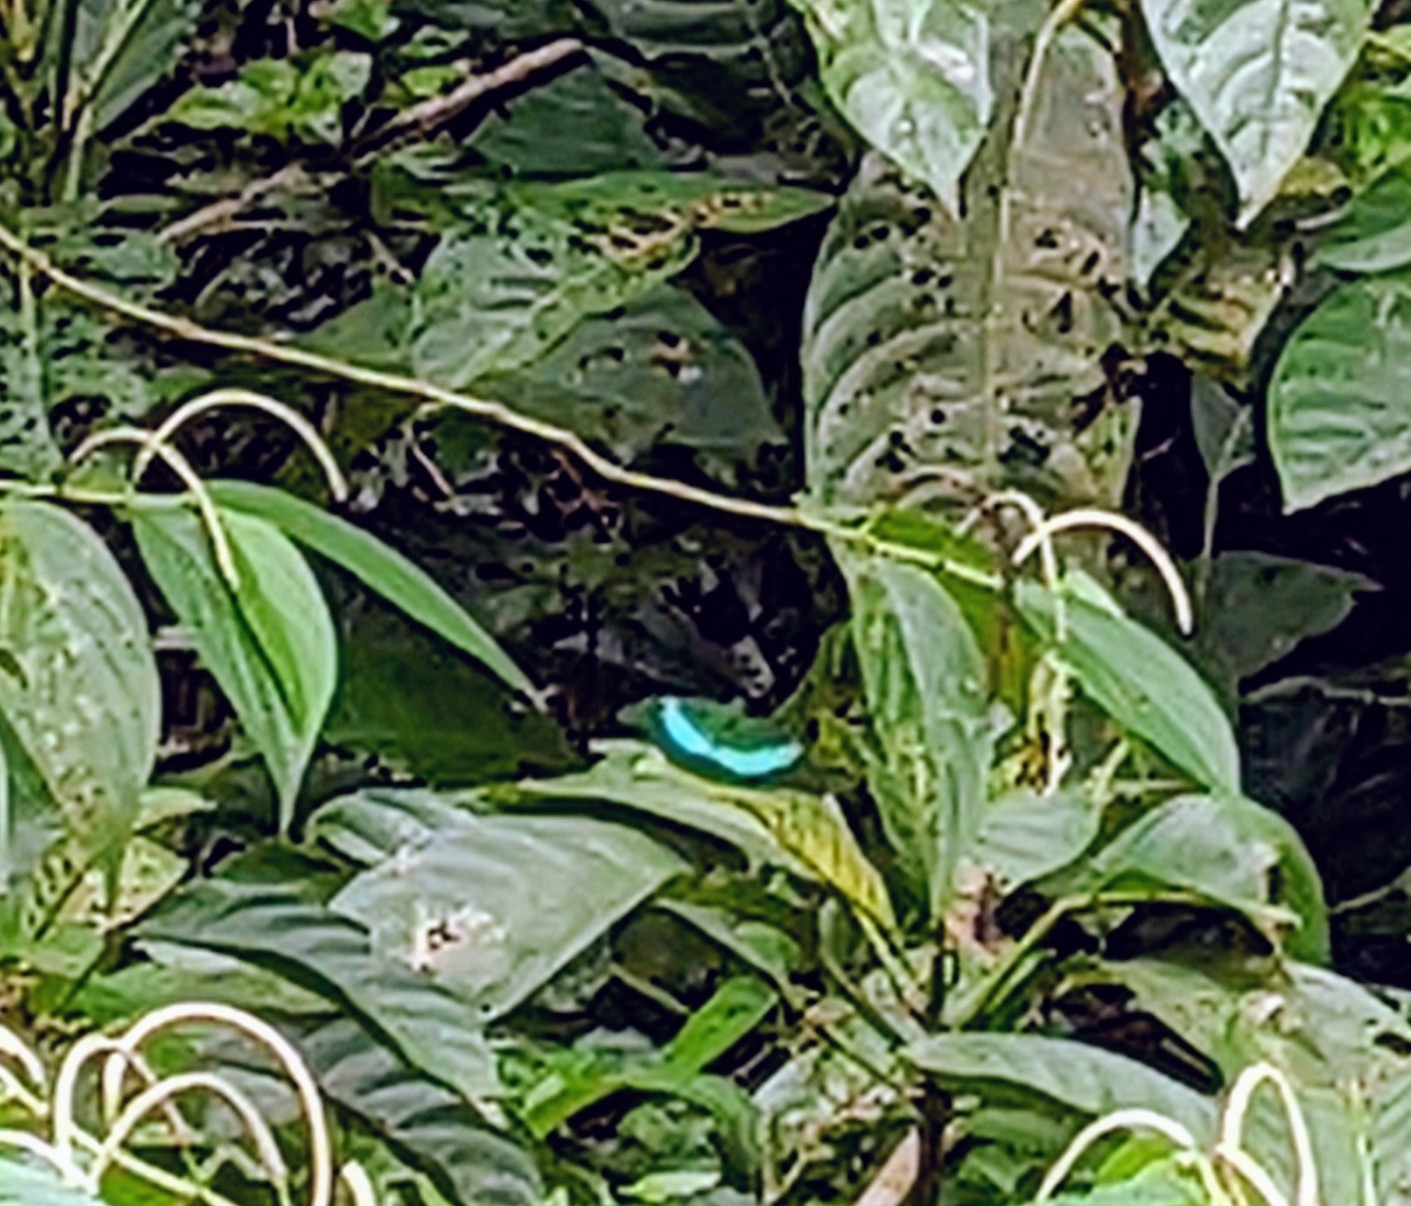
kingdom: Animalia
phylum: Arthropoda
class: Insecta
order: Lepidoptera
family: Papilionidae
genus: Papilio
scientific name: Papilio palinurus
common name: Banded peacock
